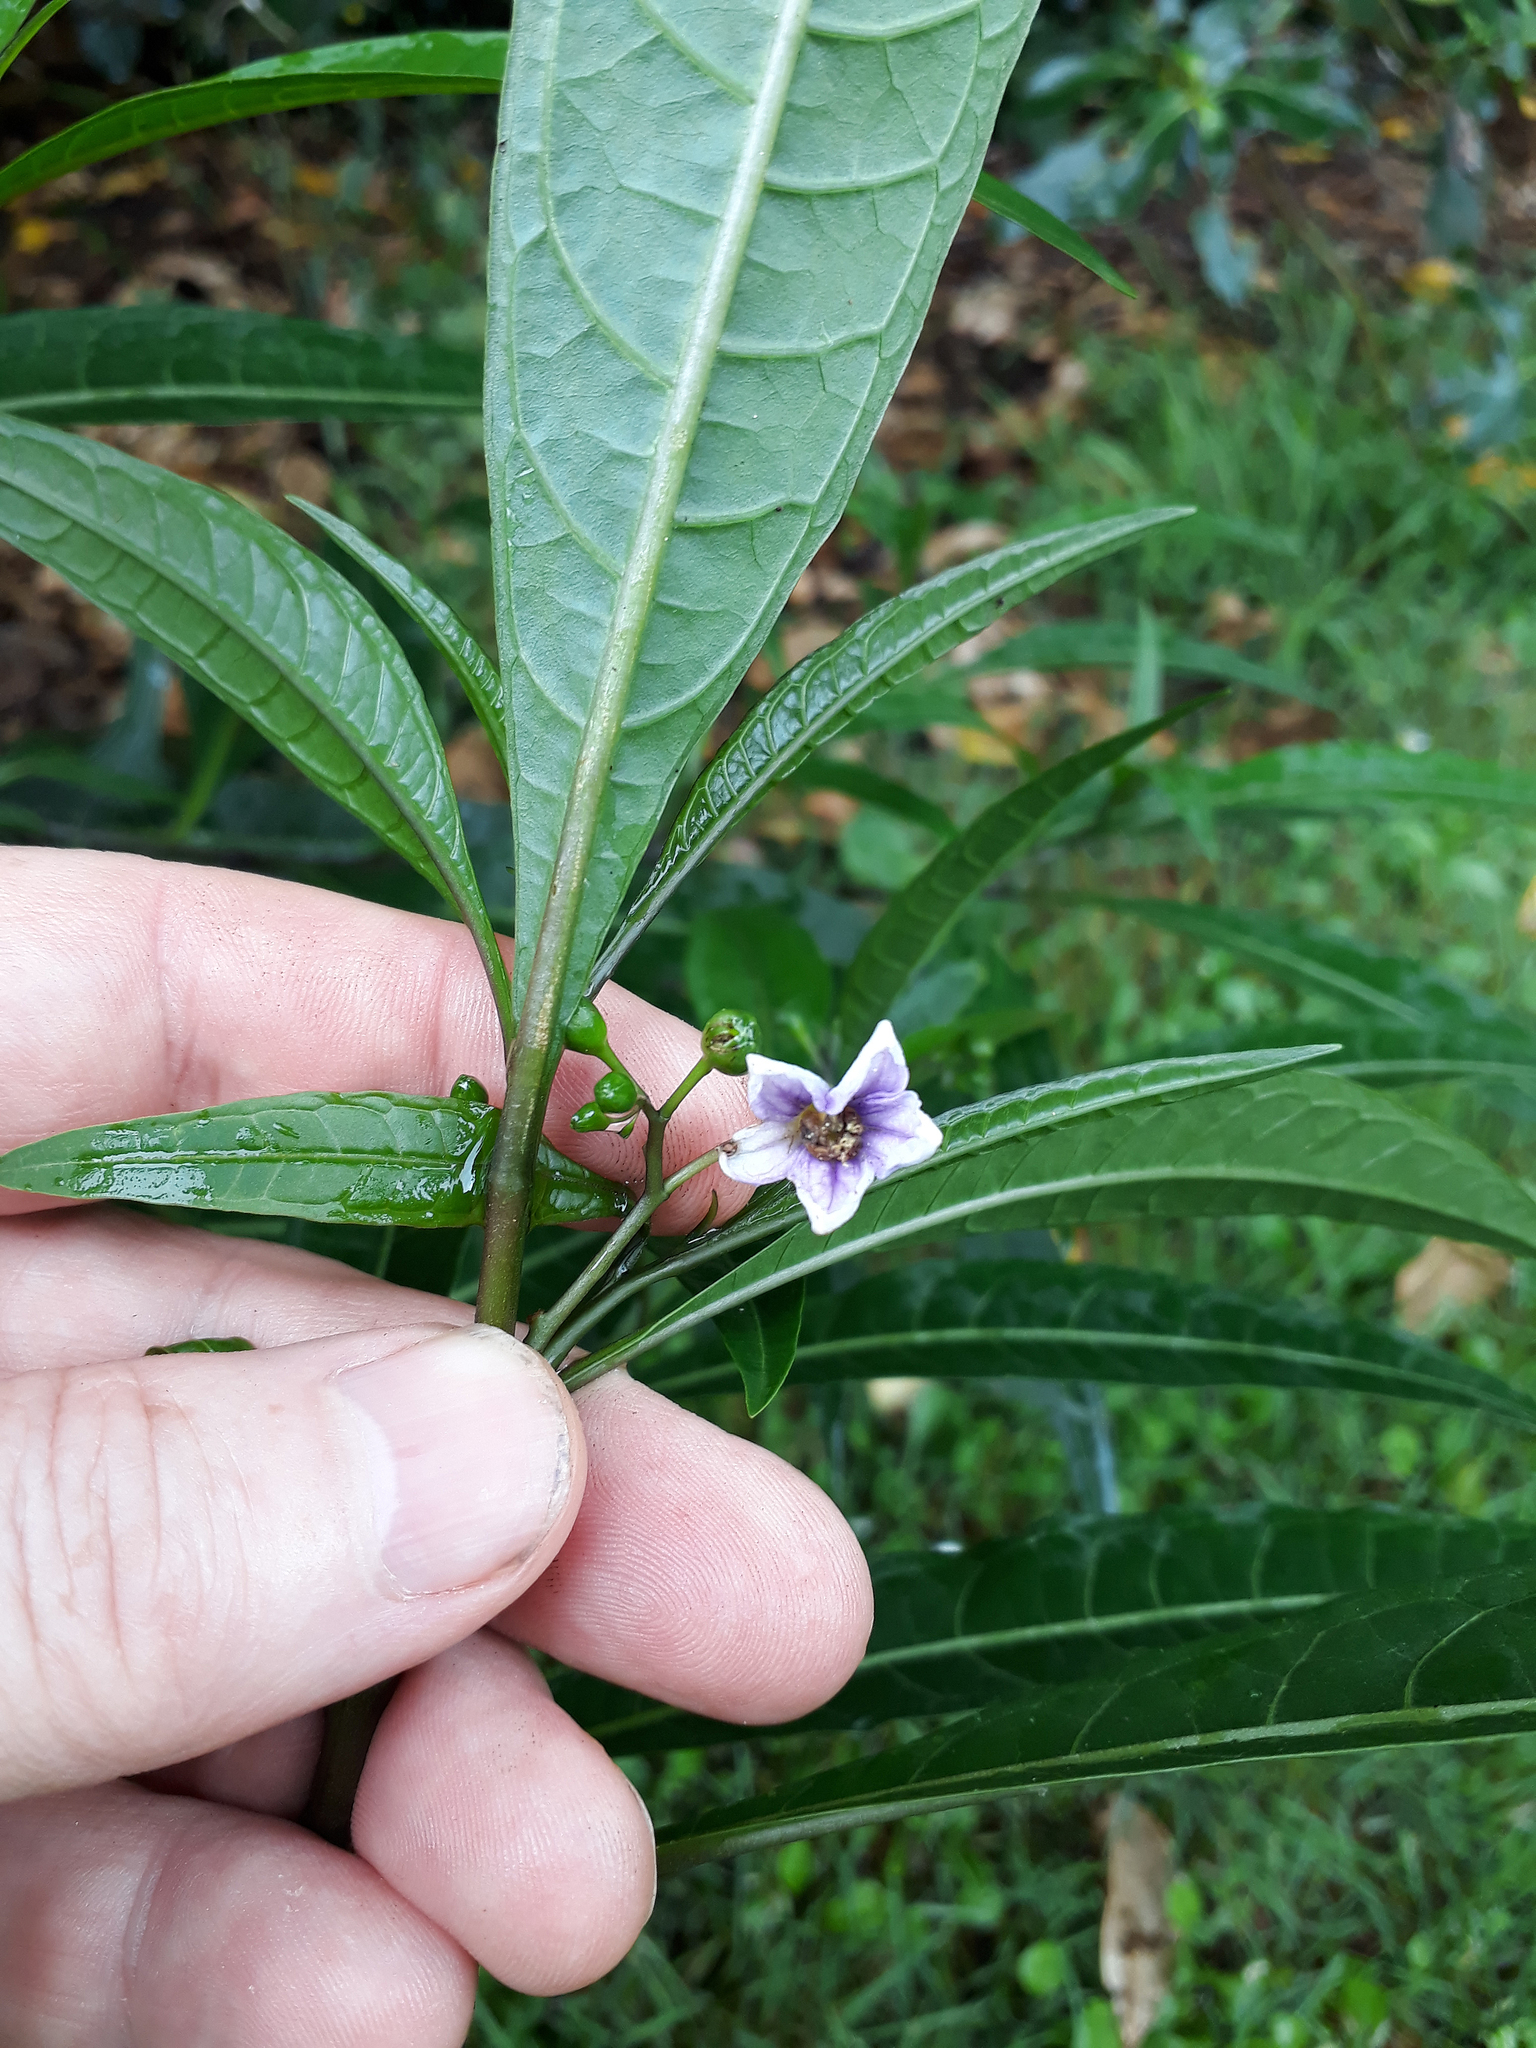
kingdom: Plantae
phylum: Tracheophyta
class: Magnoliopsida
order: Solanales
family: Solanaceae
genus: Solanum
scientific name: Solanum aviculare
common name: New zealand nightshade
